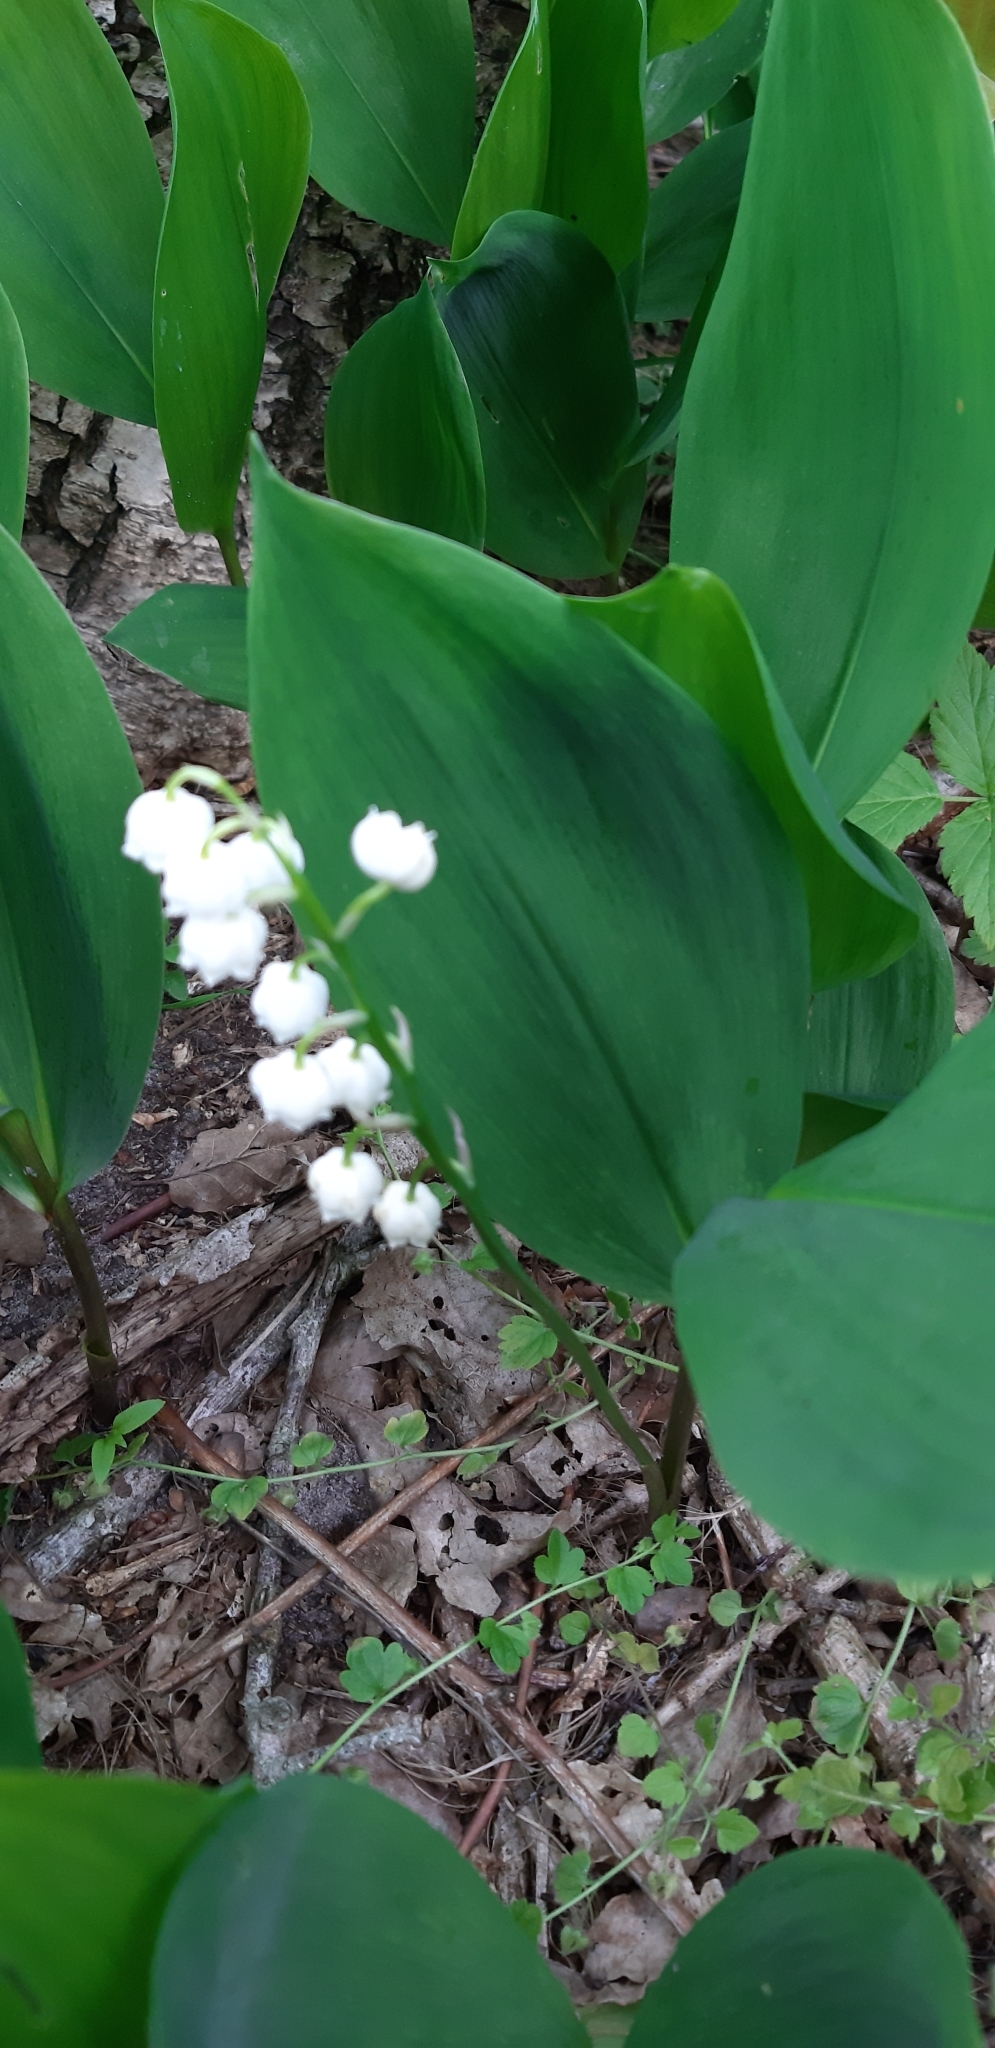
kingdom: Plantae
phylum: Tracheophyta
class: Liliopsida
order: Asparagales
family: Asparagaceae
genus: Convallaria
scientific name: Convallaria majalis
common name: Lily-of-the-valley
